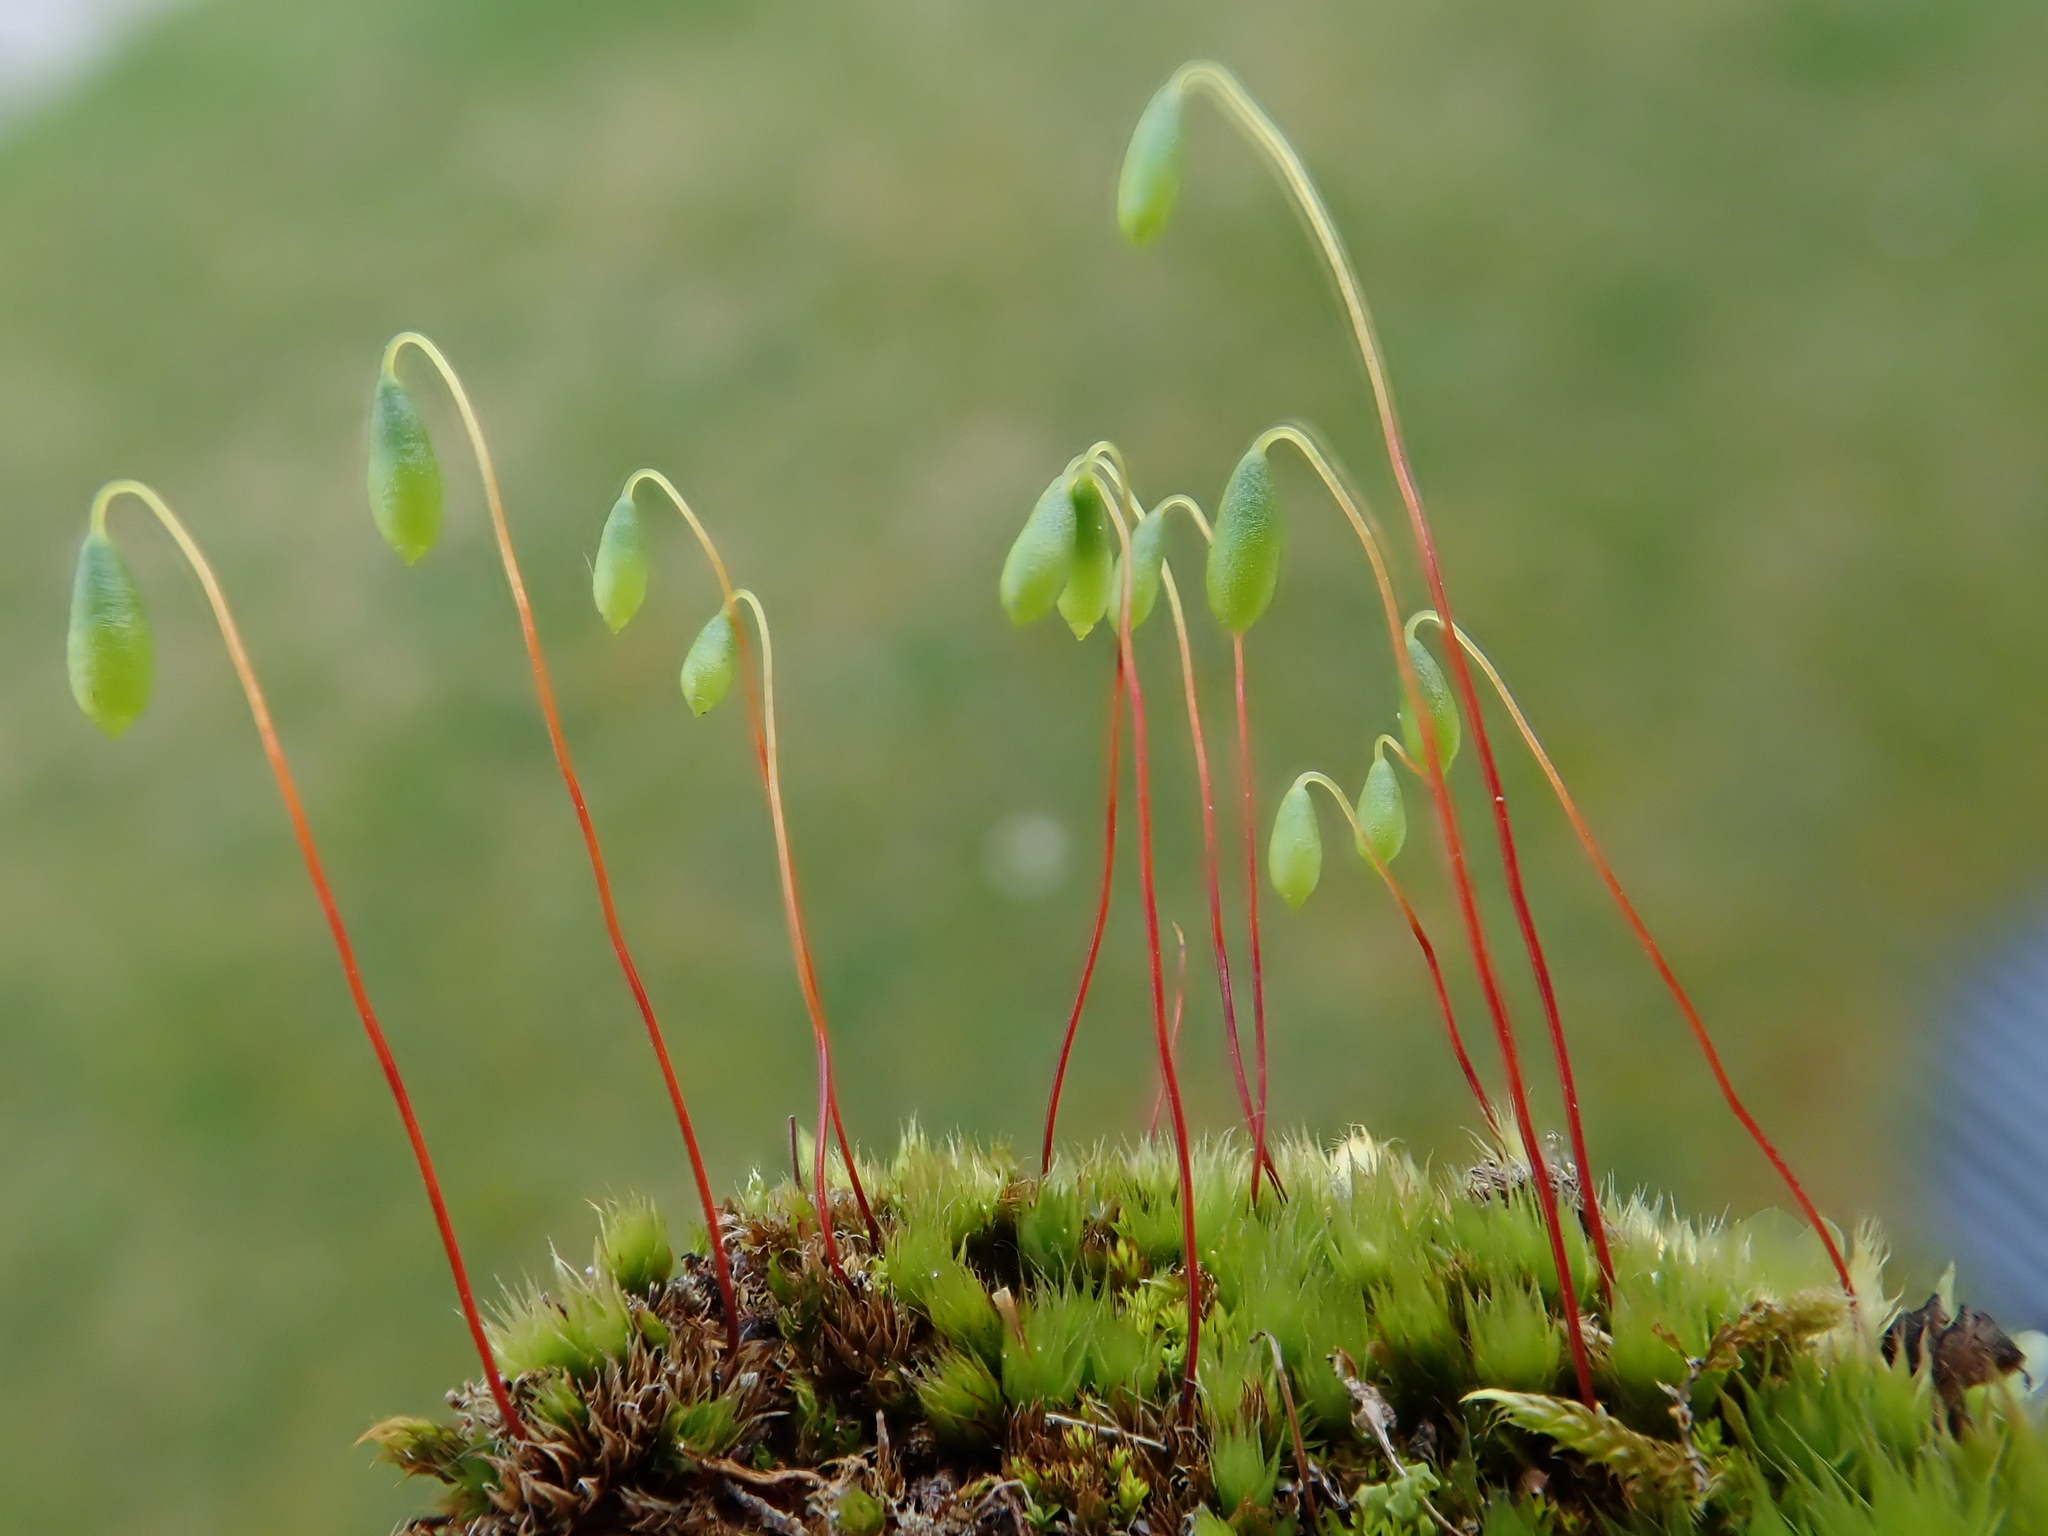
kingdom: Plantae
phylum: Bryophyta
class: Bryopsida
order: Bryales
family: Bryaceae
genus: Gemmabryum
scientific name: Gemmabryum caespiticium
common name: Handbell moss
